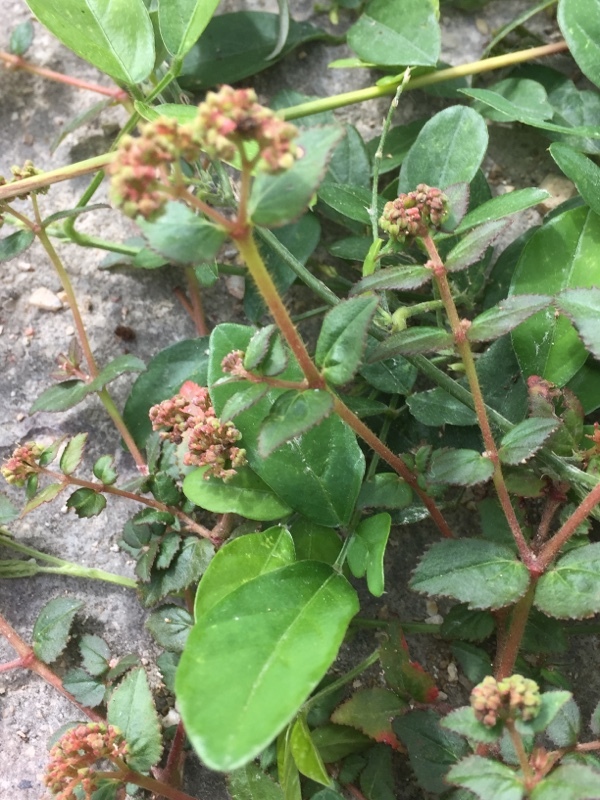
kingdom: Plantae
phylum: Tracheophyta
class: Magnoliopsida
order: Malpighiales
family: Euphorbiaceae
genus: Euphorbia
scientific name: Euphorbia ophthalmica
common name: Florida hammock sandmat
